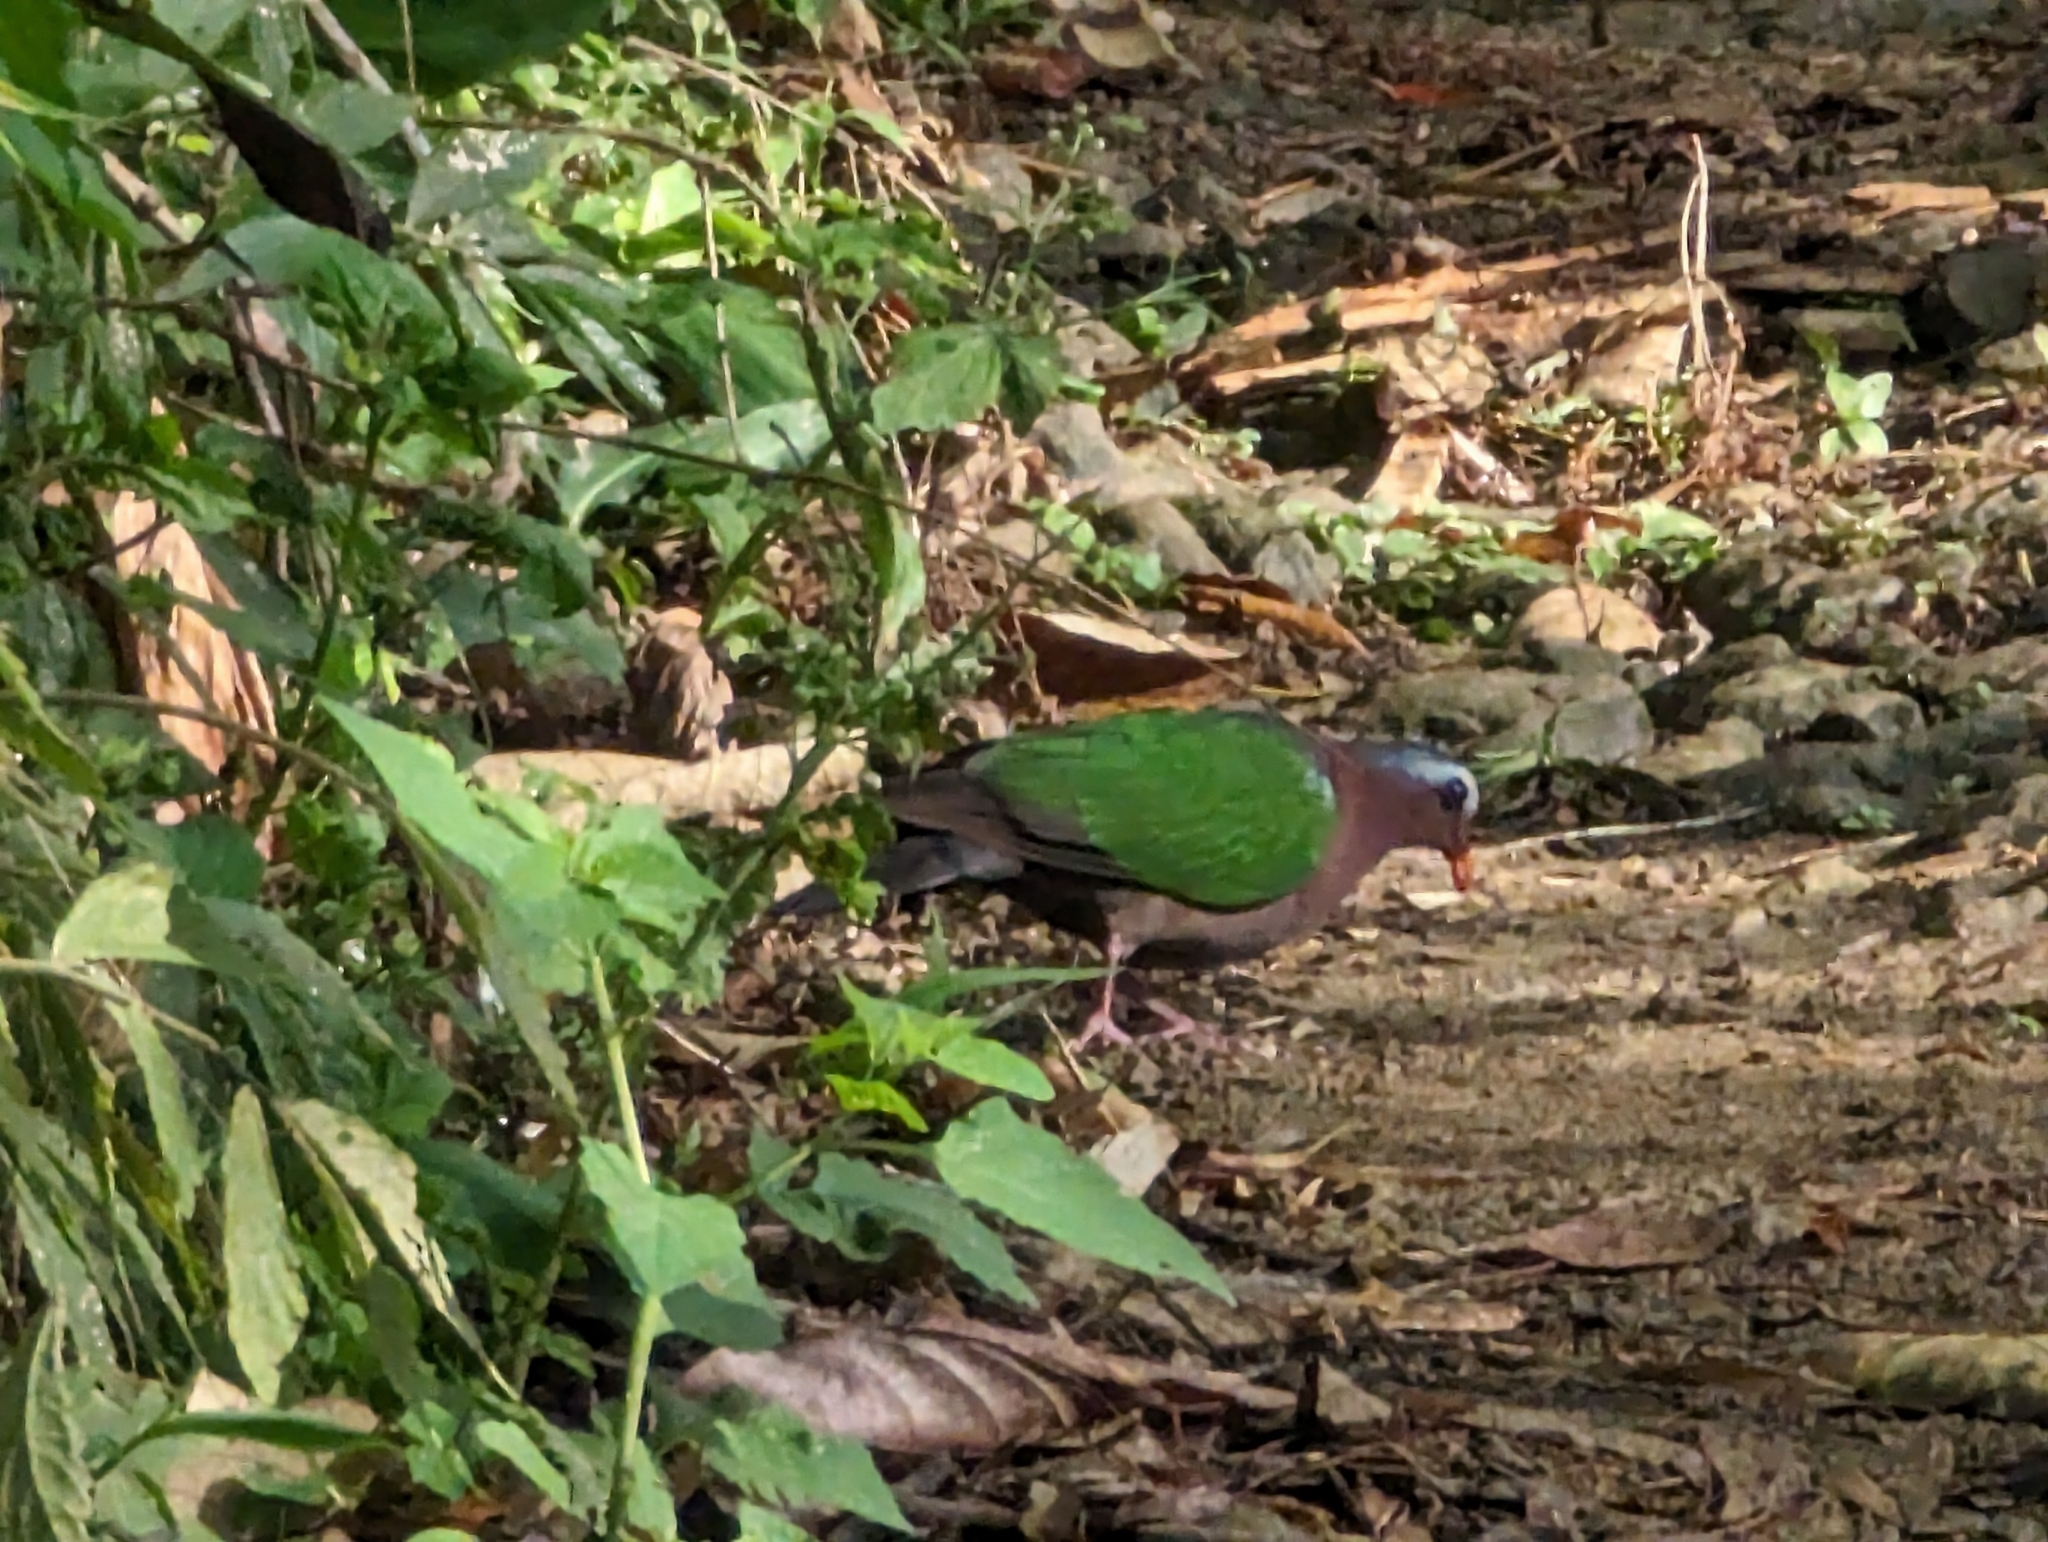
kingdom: Animalia
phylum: Chordata
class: Aves
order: Columbiformes
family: Columbidae
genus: Chalcophaps
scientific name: Chalcophaps indica
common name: Common emerald dove
